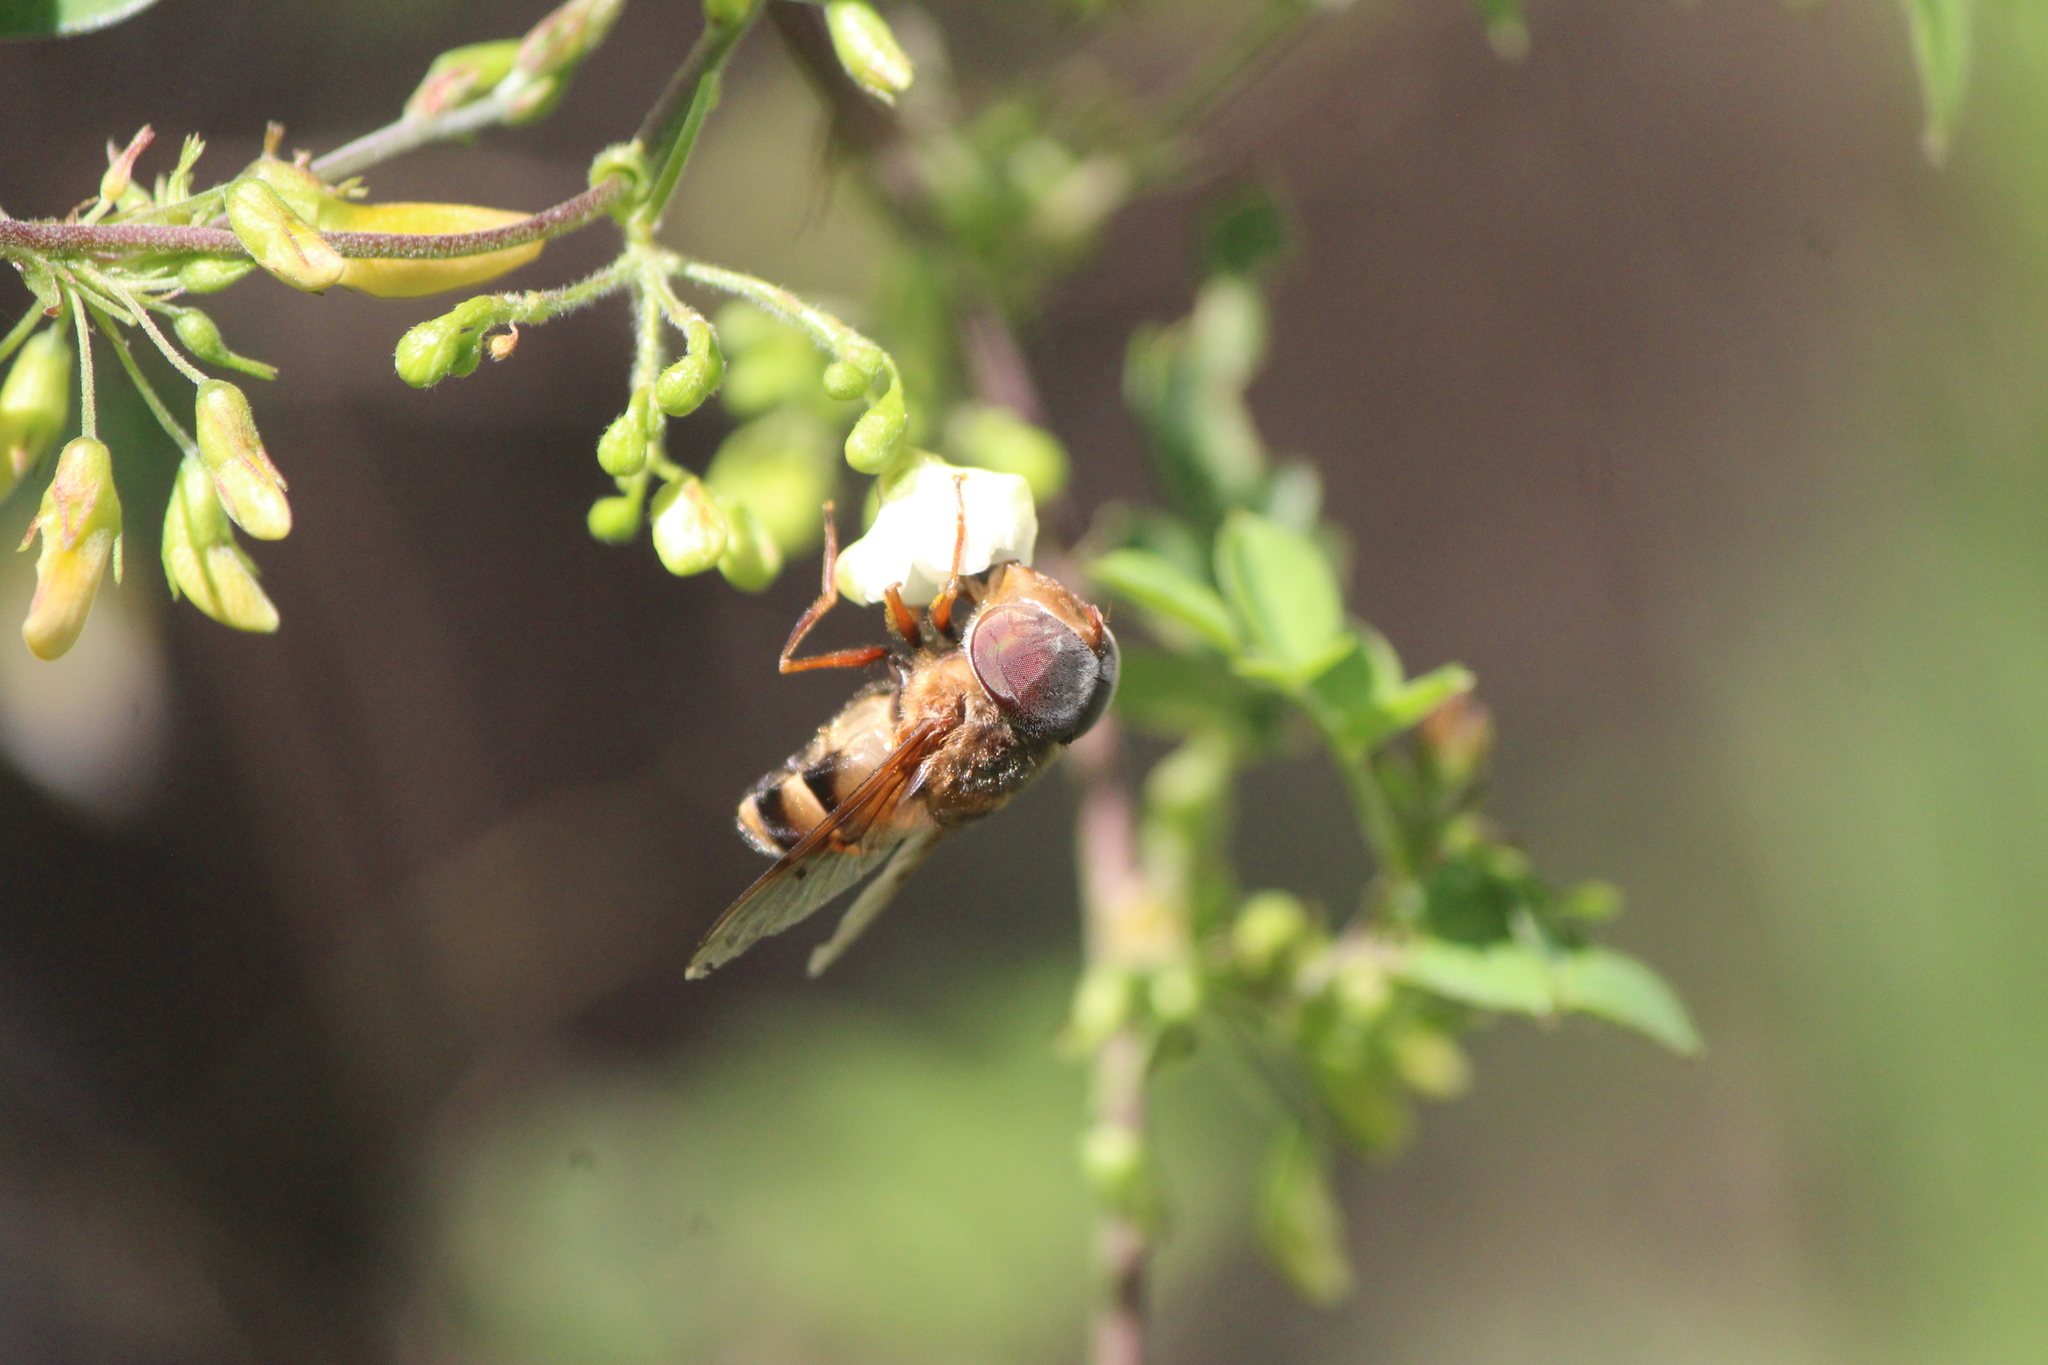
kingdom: Animalia
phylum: Arthropoda
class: Insecta
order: Diptera
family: Syrphidae
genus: Copestylum
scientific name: Copestylum macrocephalum
